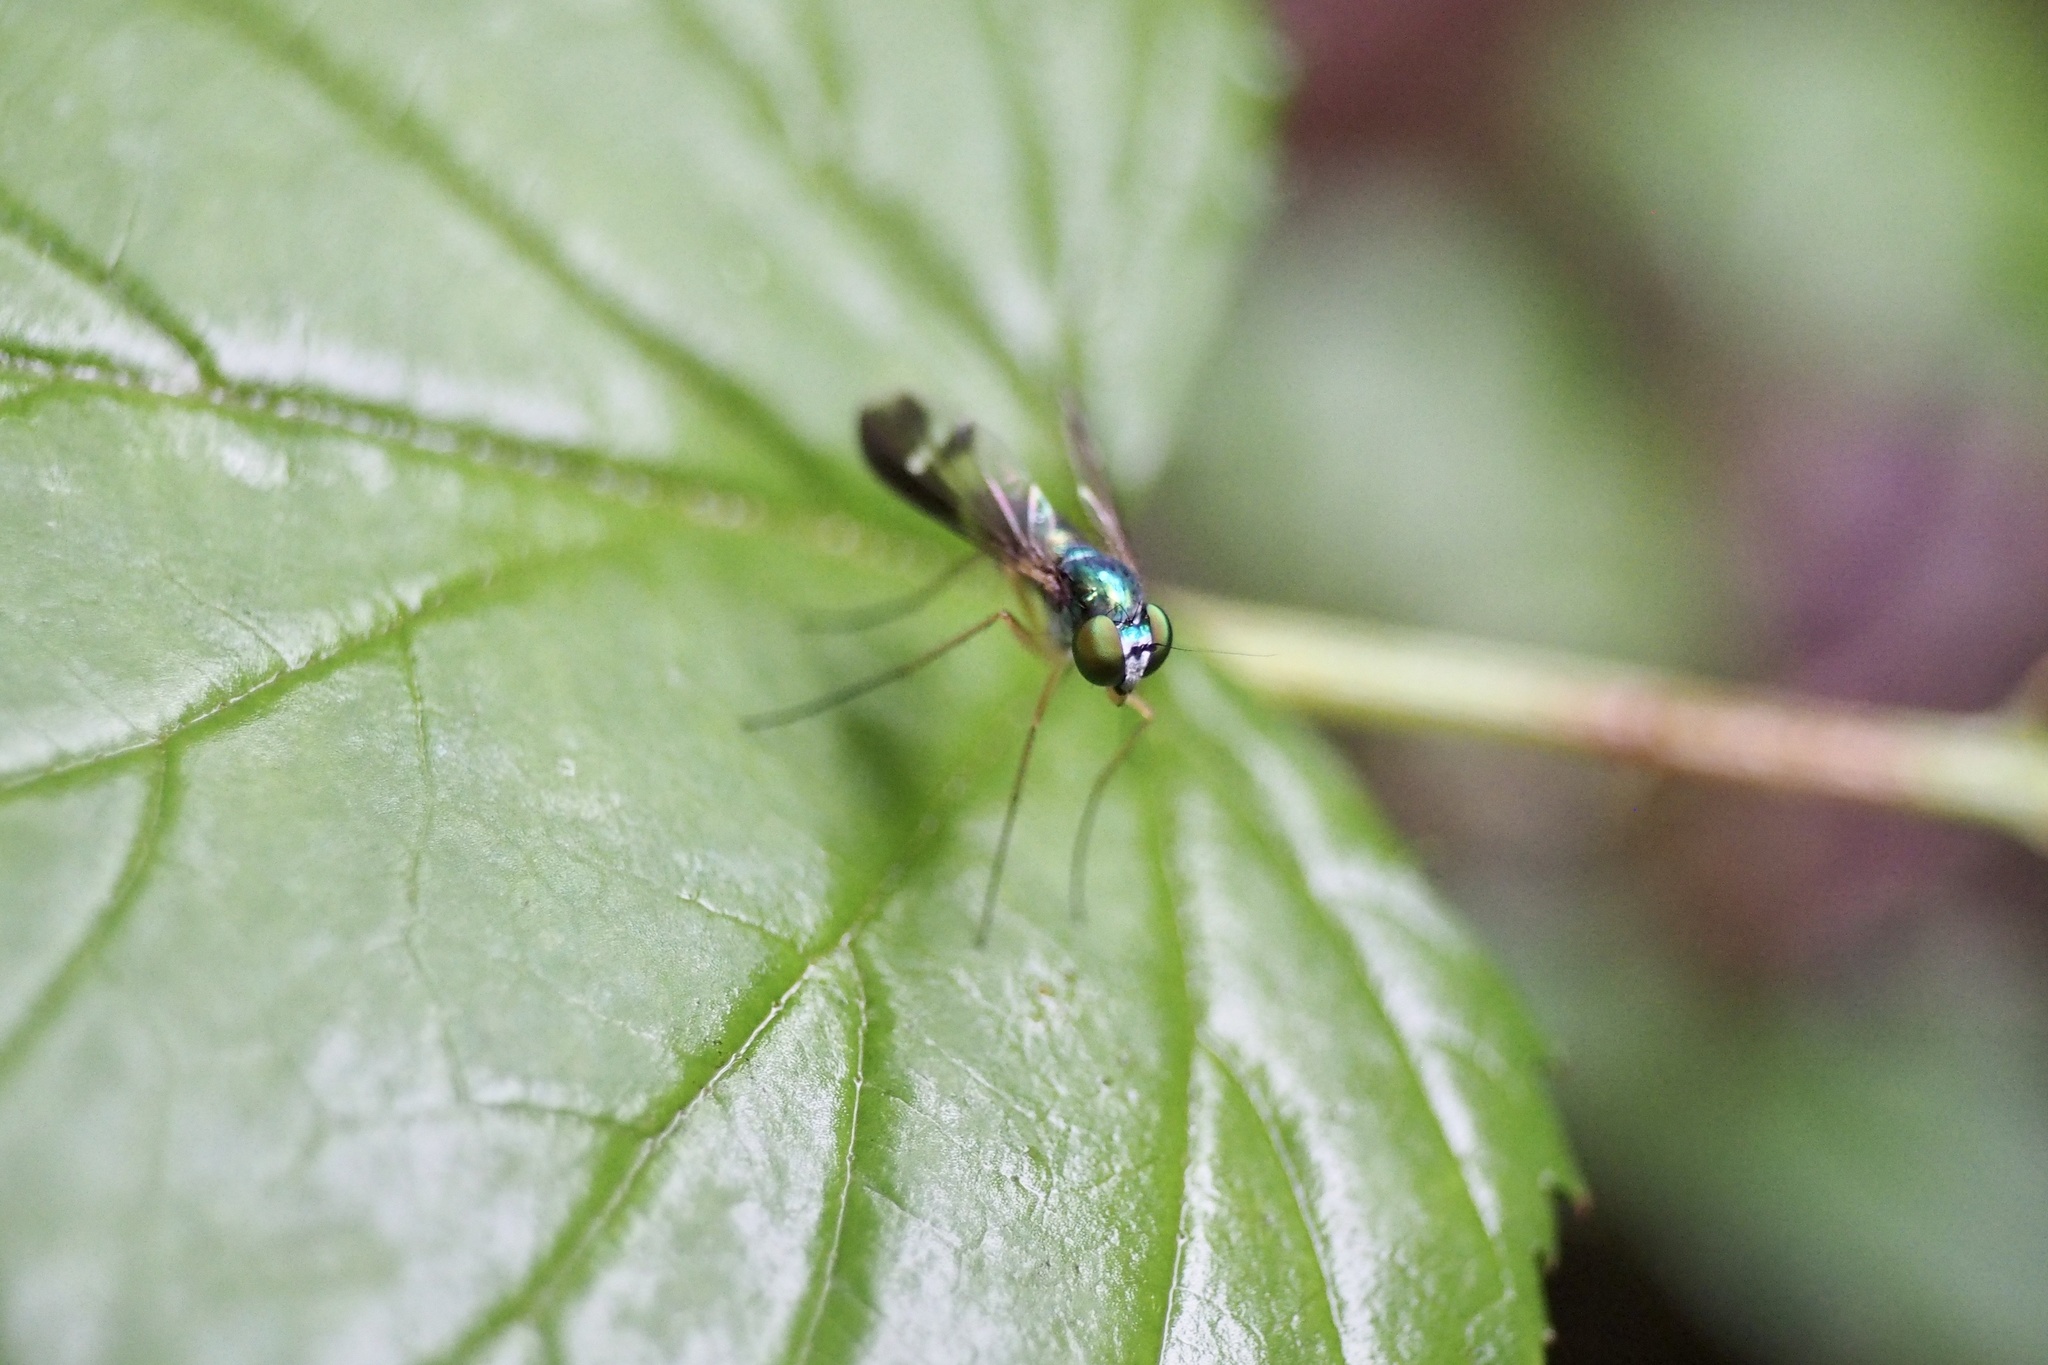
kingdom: Animalia
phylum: Arthropoda
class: Insecta
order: Diptera
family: Dolichopodidae
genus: Condylostylus
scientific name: Condylostylus nebulosus
